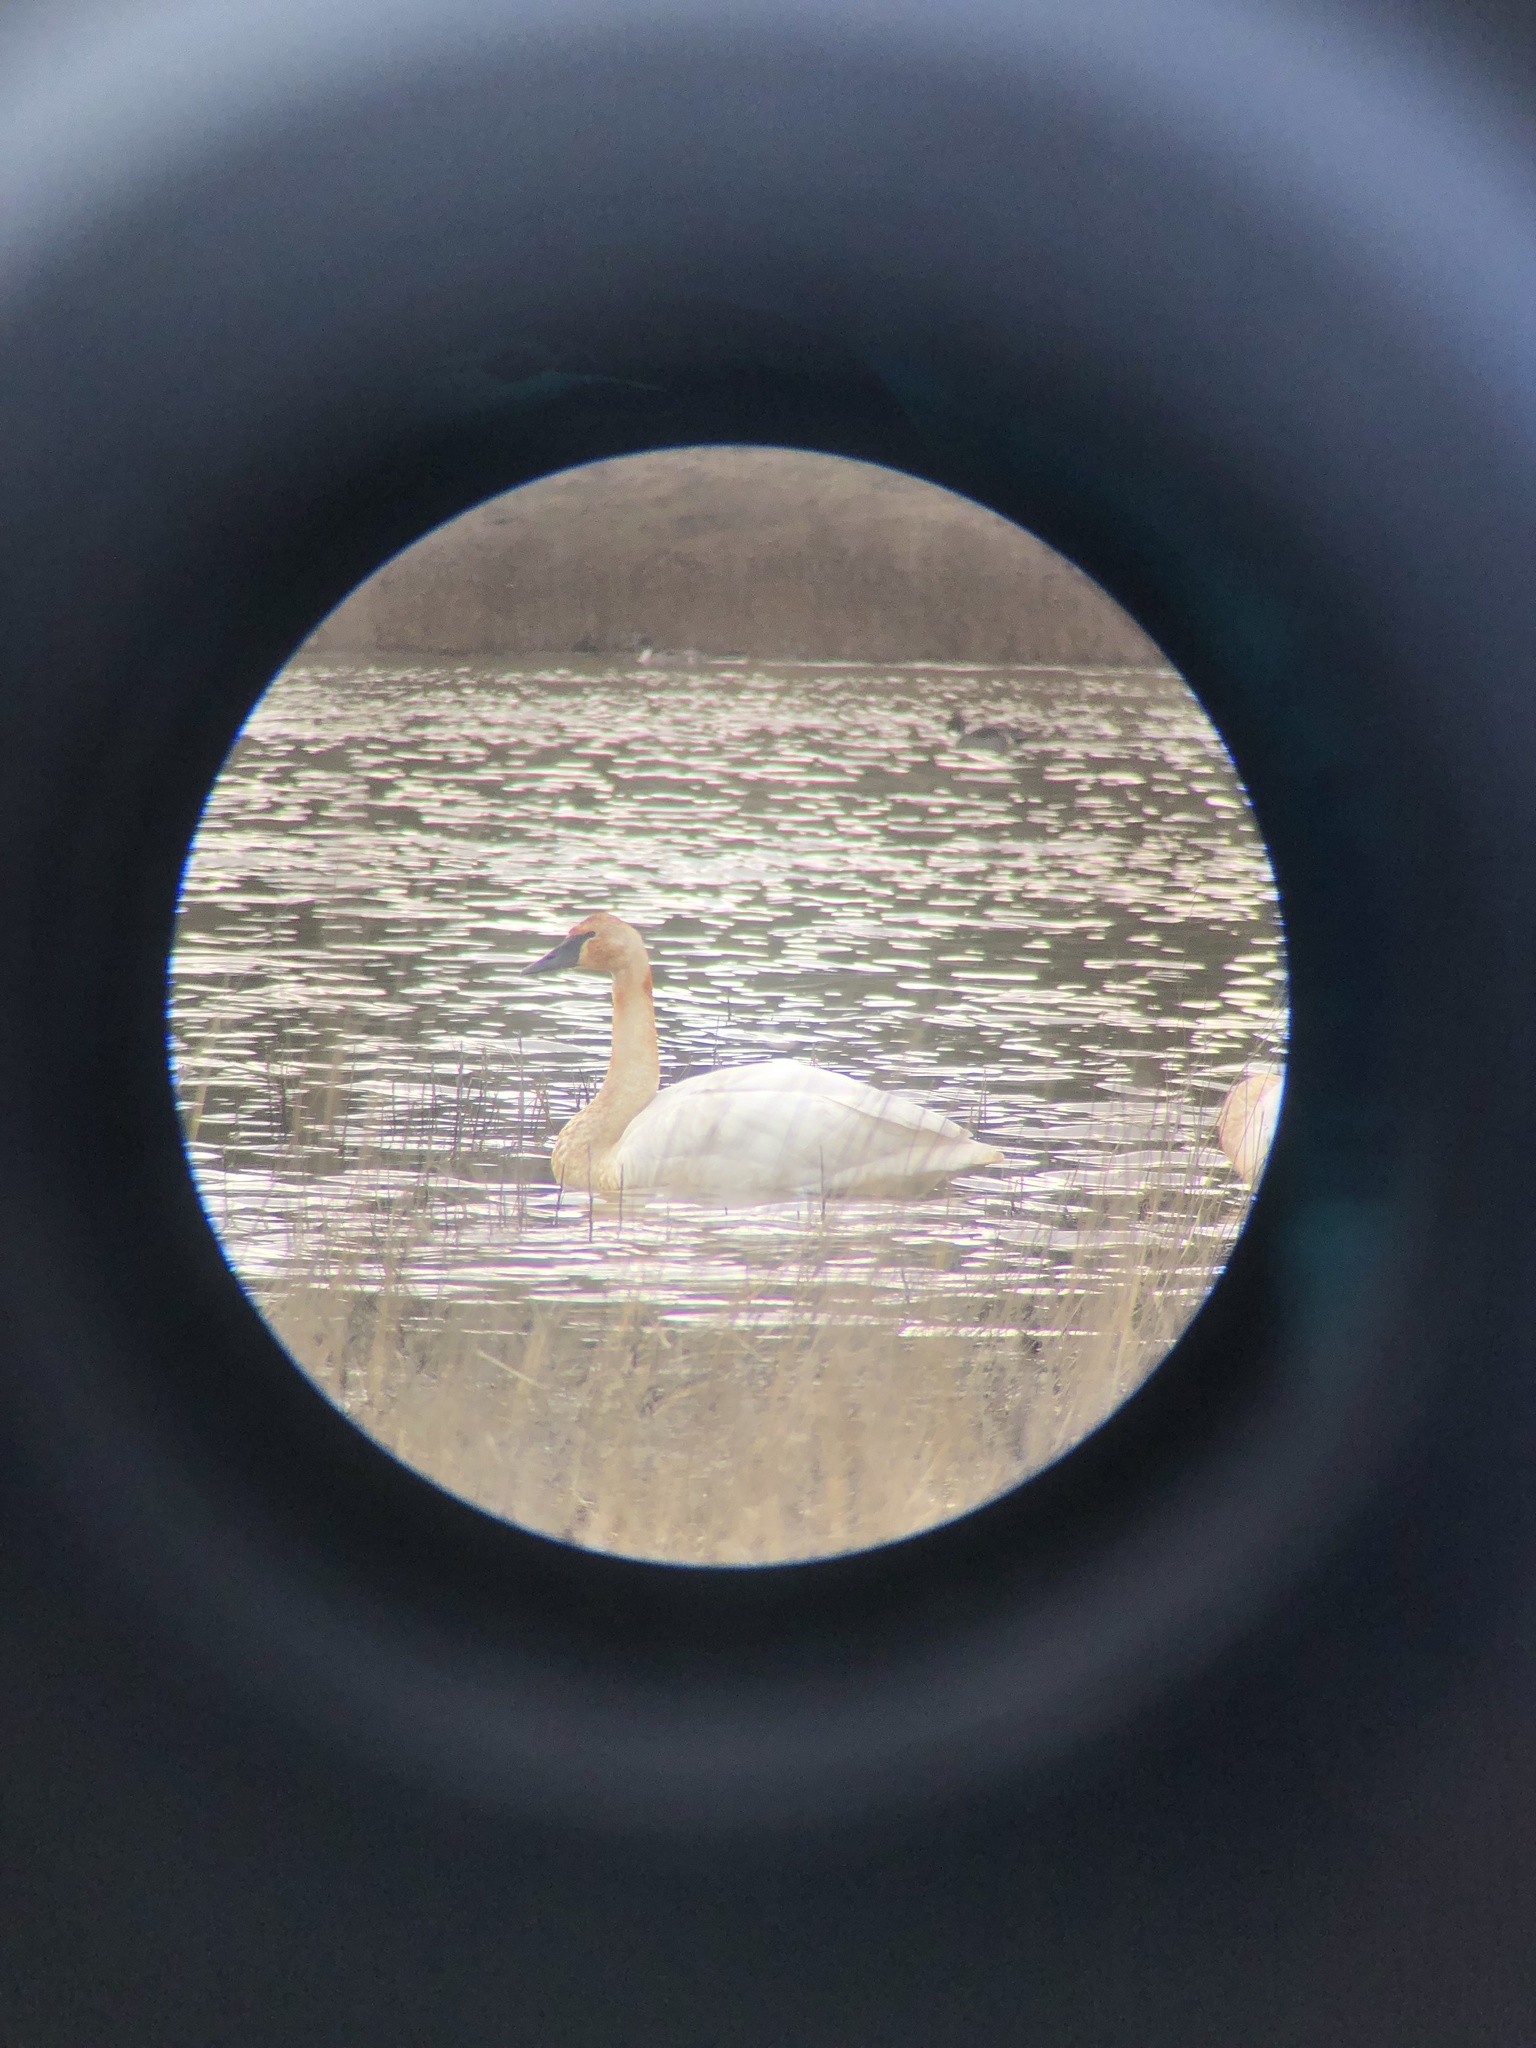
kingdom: Animalia
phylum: Chordata
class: Aves
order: Anseriformes
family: Anatidae
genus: Cygnus
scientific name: Cygnus buccinator
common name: Trumpeter swan
